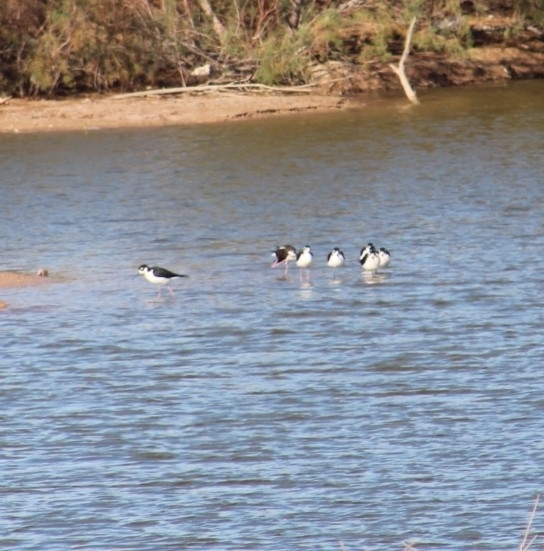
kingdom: Animalia
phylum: Chordata
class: Aves
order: Charadriiformes
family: Recurvirostridae
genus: Himantopus
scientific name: Himantopus mexicanus
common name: Black-necked stilt
